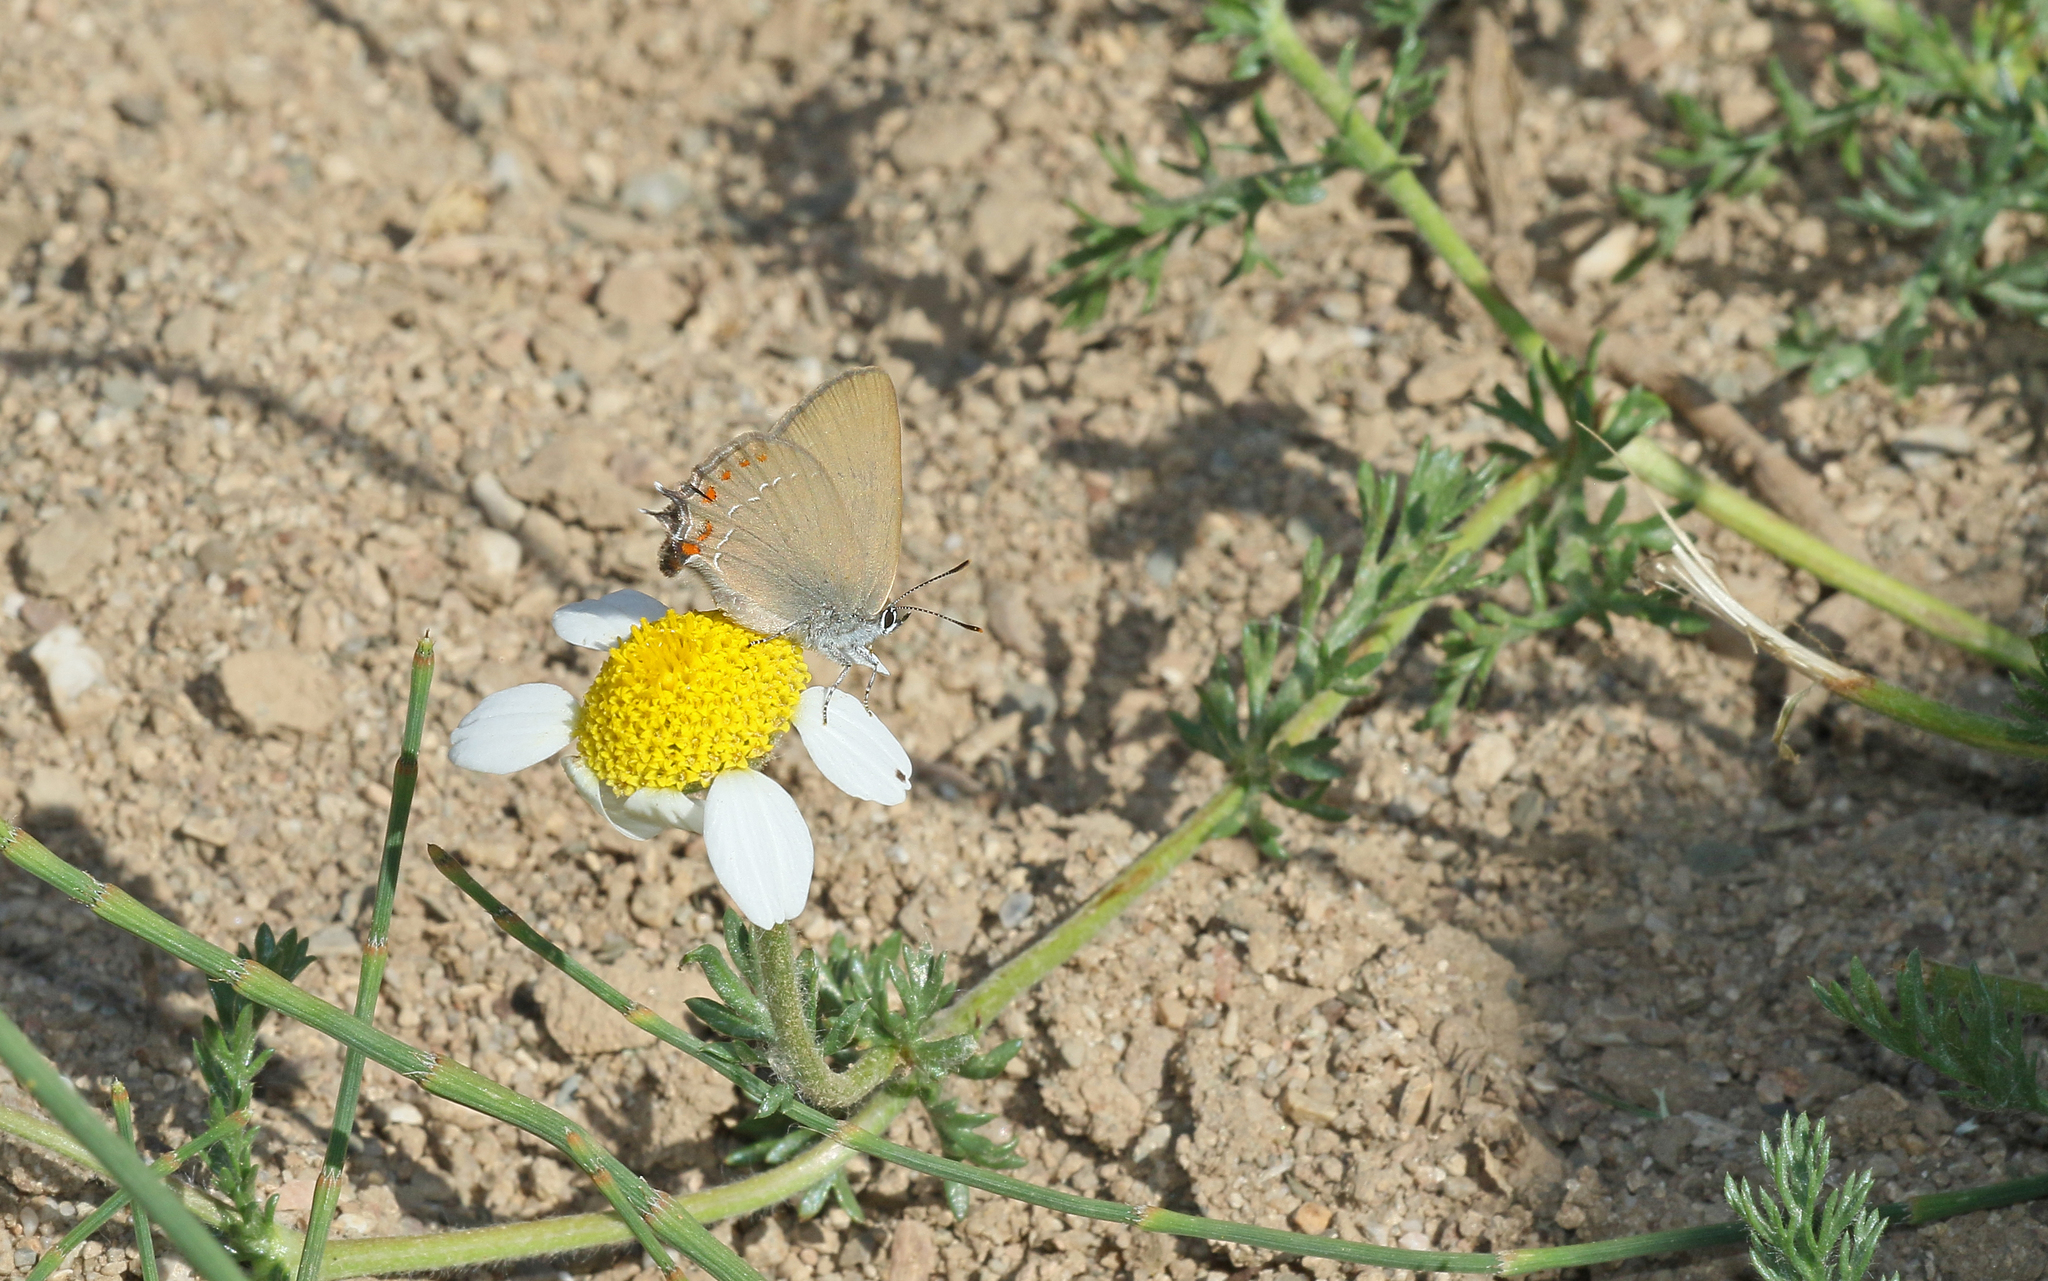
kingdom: Animalia
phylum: Arthropoda
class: Insecta
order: Lepidoptera
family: Lycaenidae
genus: Fixsenia
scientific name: Fixsenia esculi
